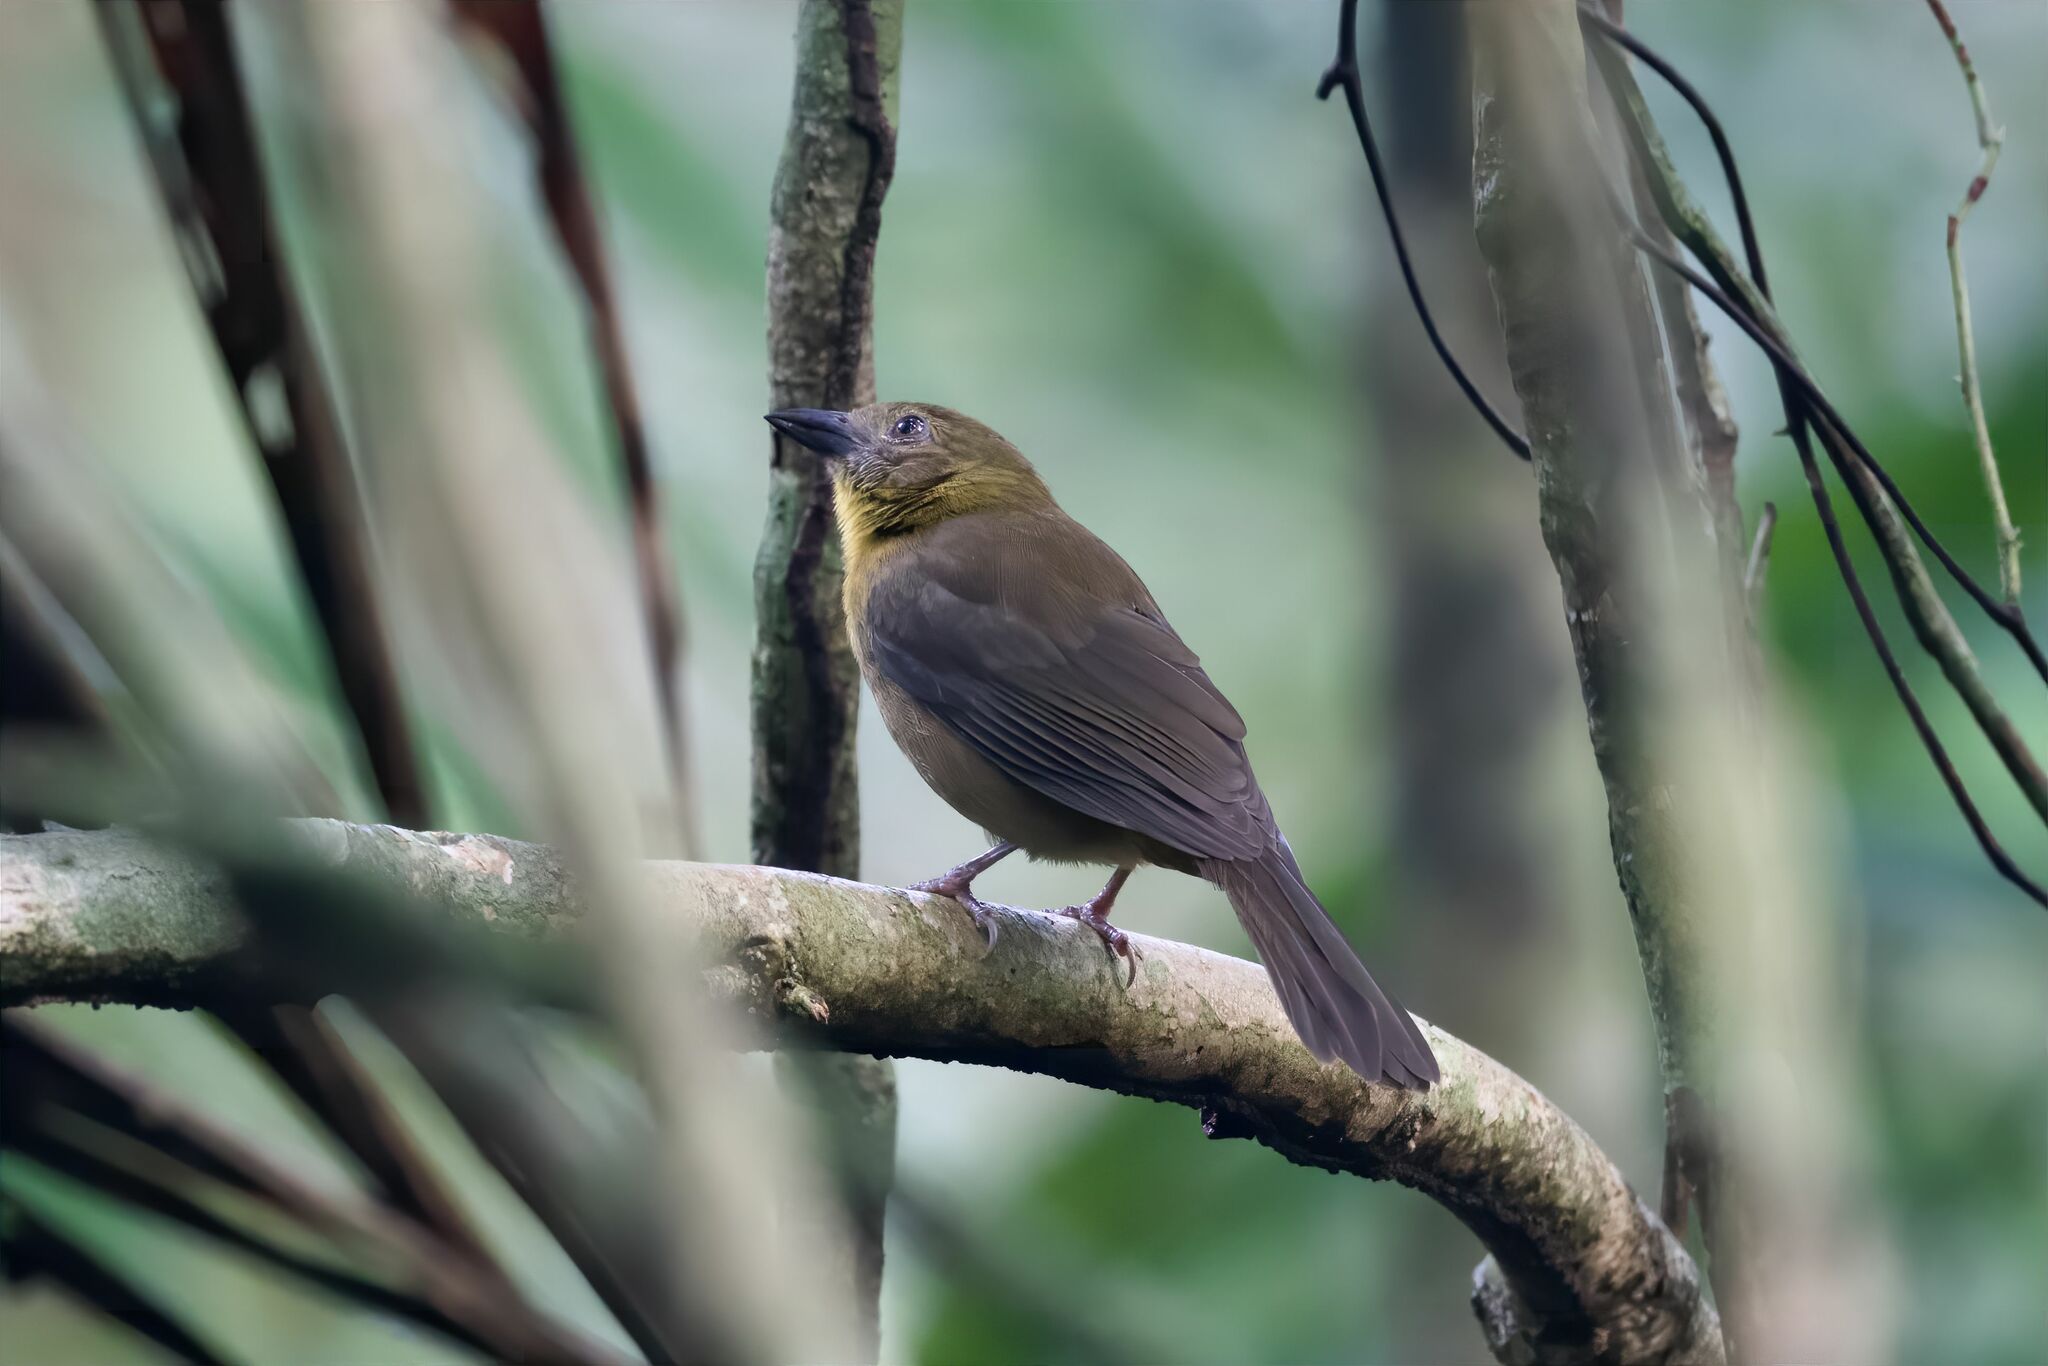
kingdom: Animalia
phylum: Chordata
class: Aves
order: Passeriformes
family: Cardinalidae
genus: Habia
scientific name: Habia fuscicauda
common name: Red-throated ant-tanager
